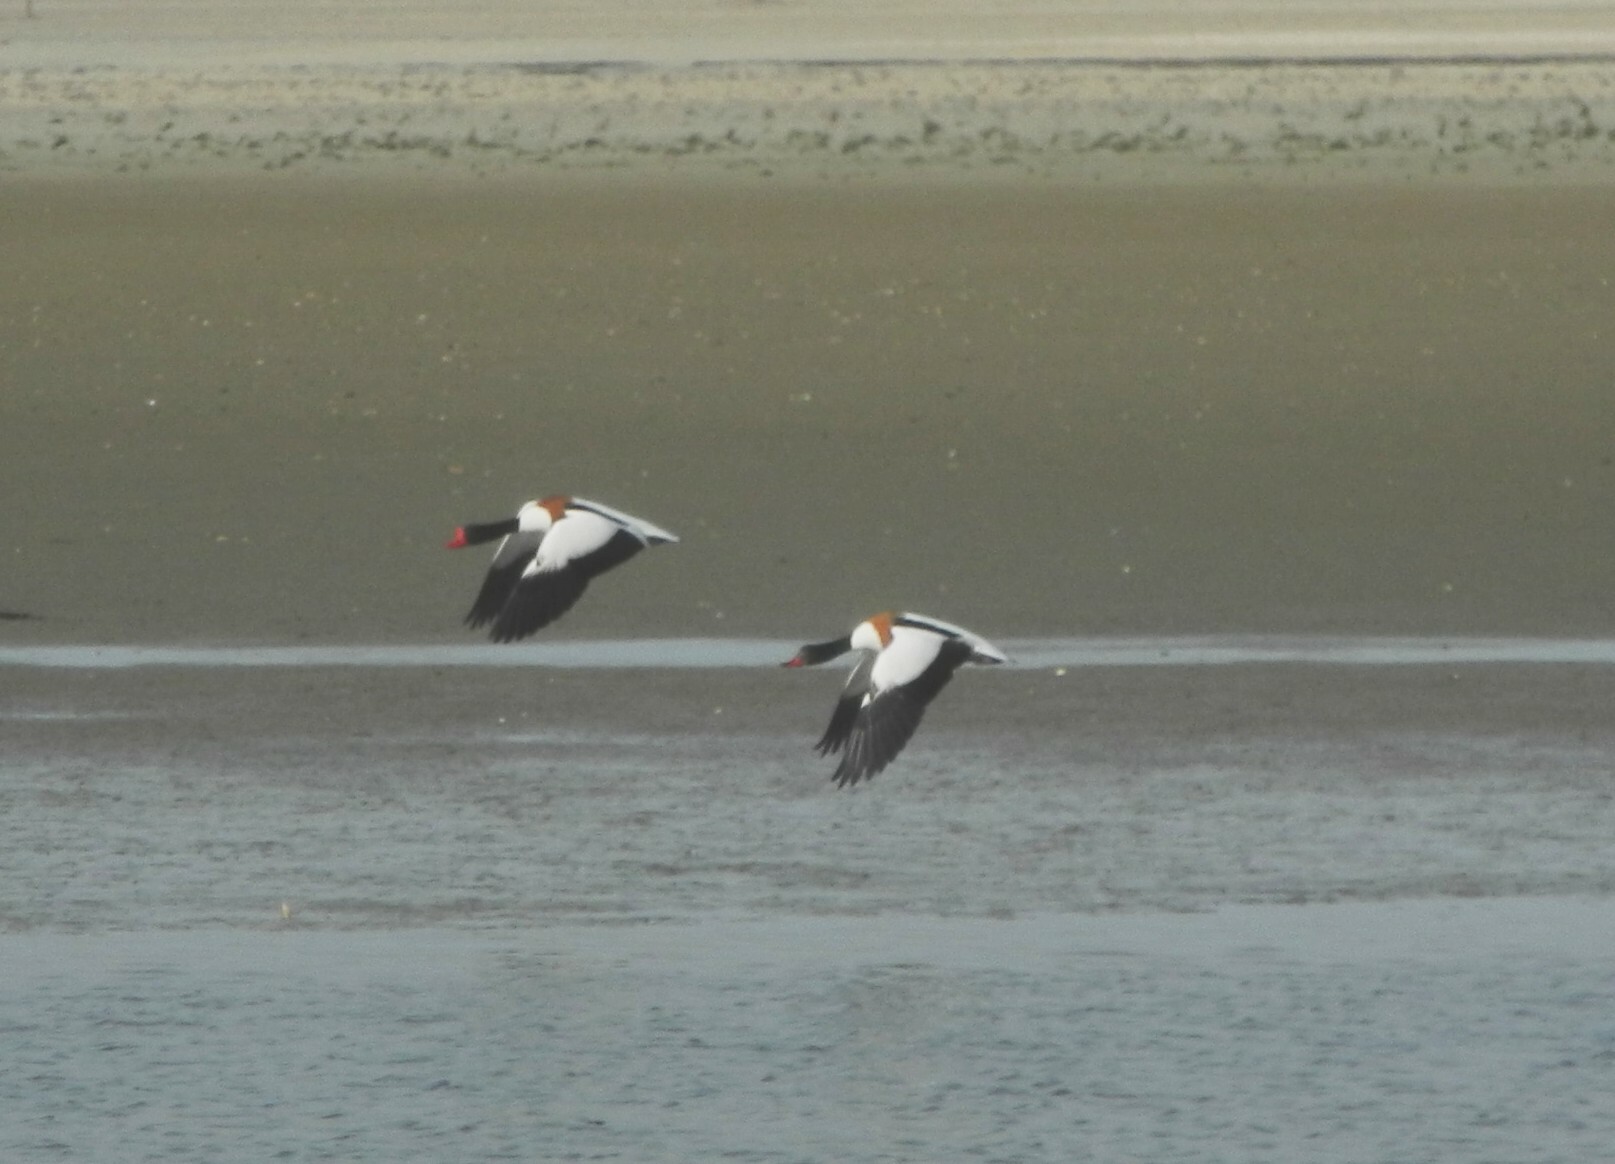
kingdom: Animalia
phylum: Chordata
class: Aves
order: Anseriformes
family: Anatidae
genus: Tadorna
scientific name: Tadorna tadorna
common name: Common shelduck
